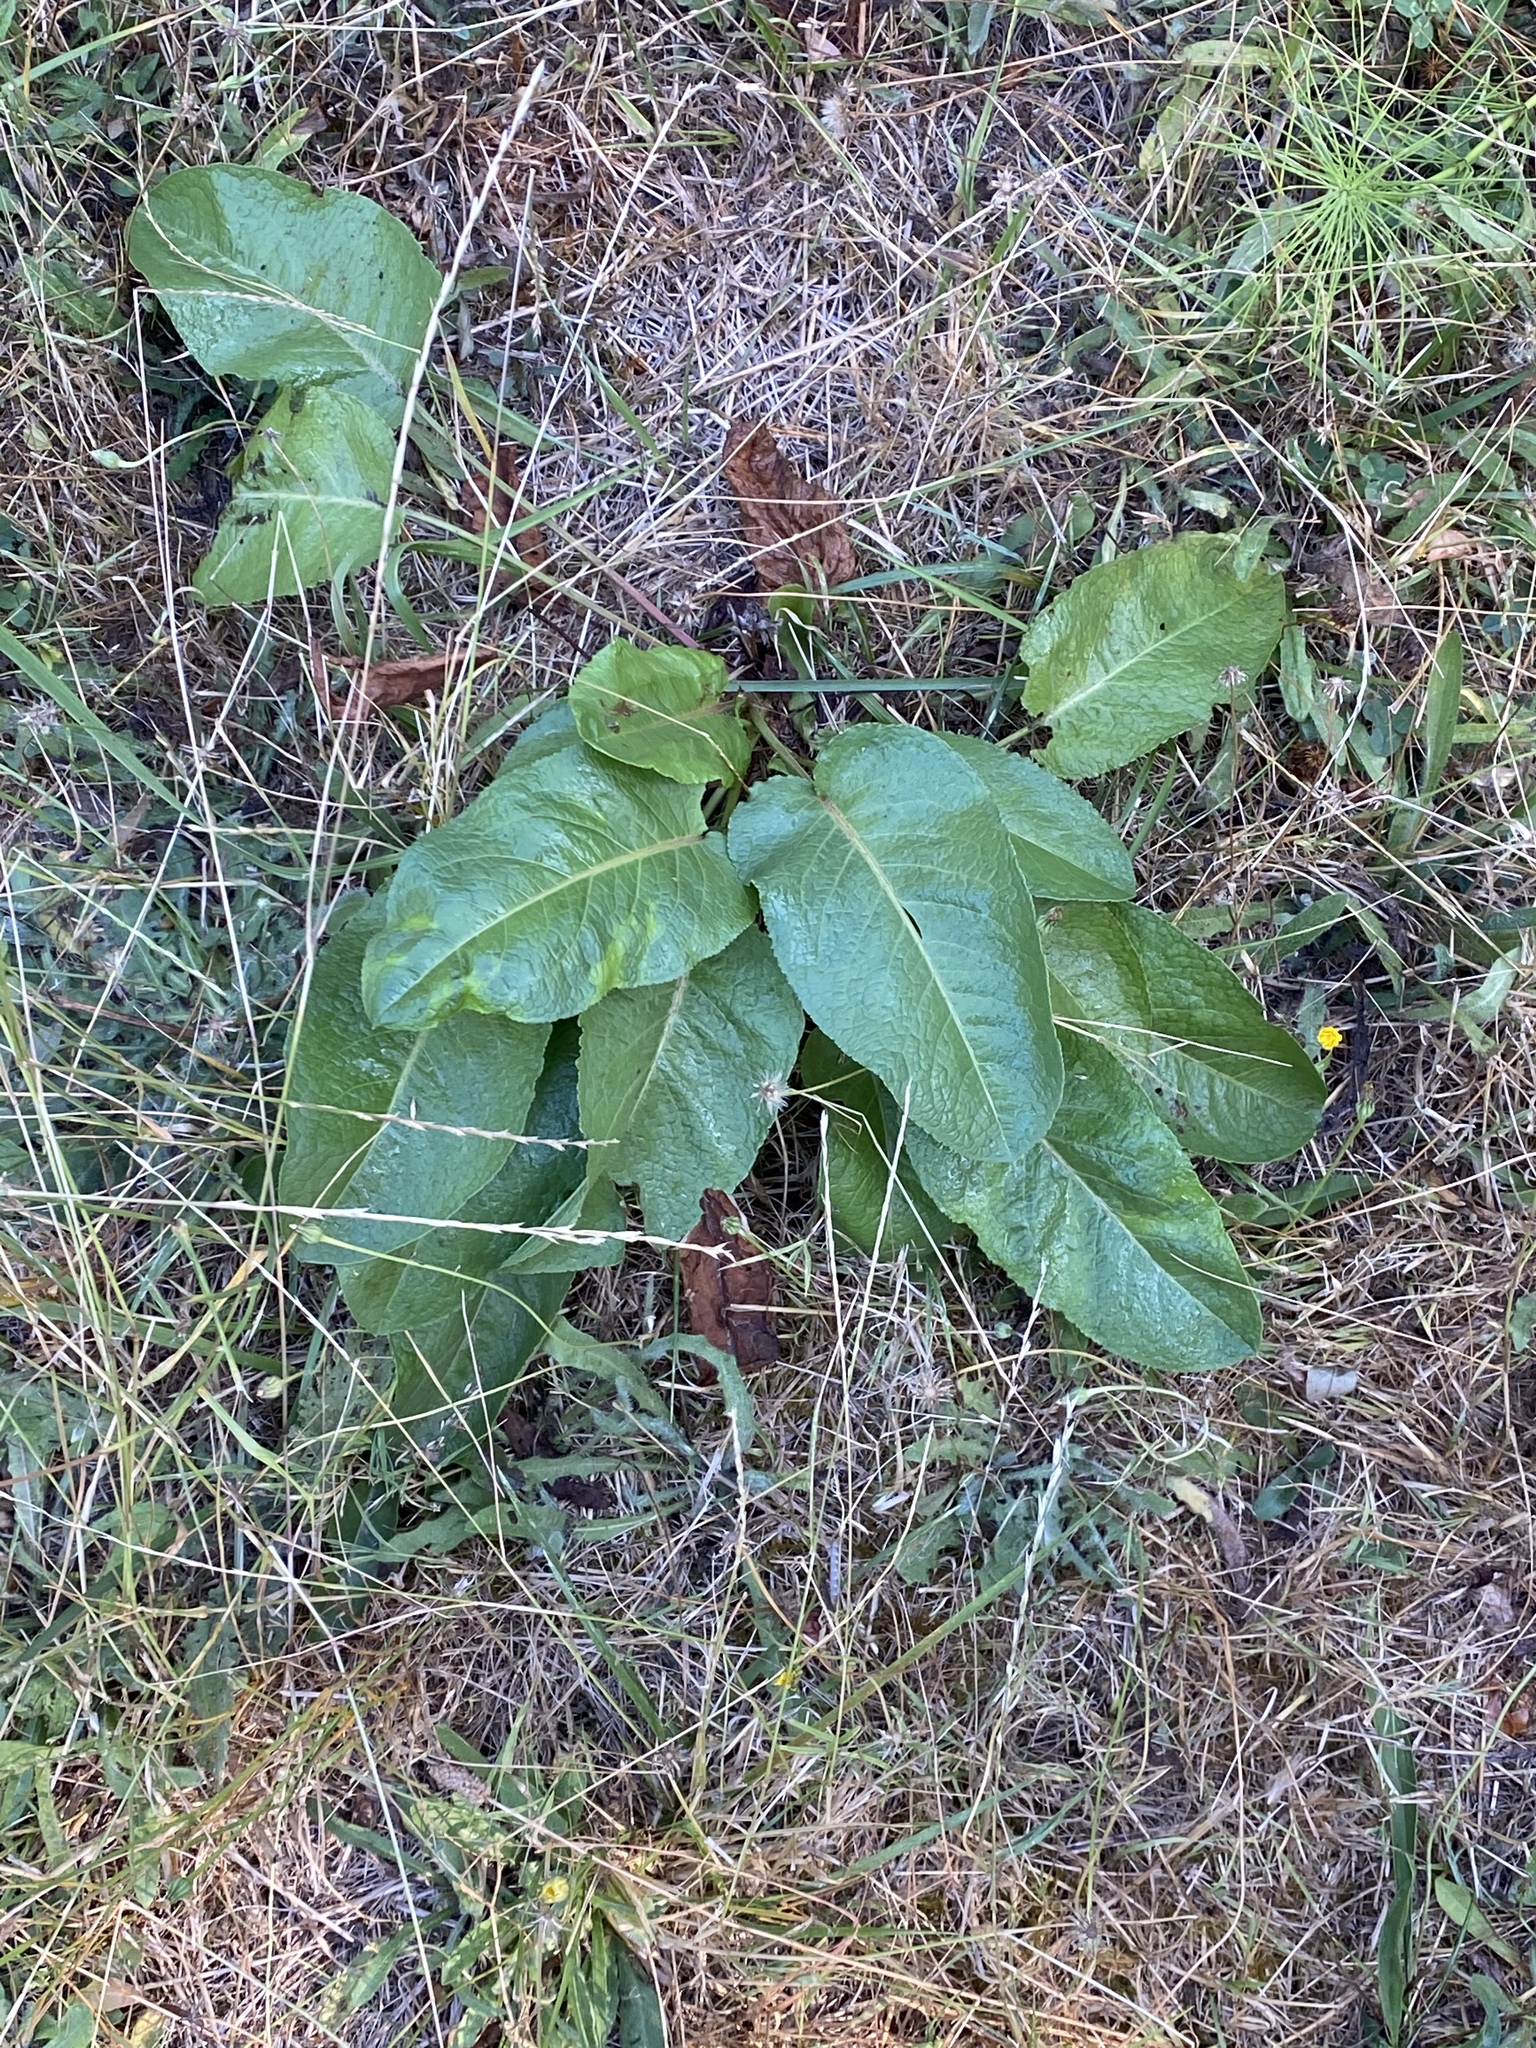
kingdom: Plantae
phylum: Tracheophyta
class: Magnoliopsida
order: Caryophyllales
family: Polygonaceae
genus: Rumex
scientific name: Rumex obtusifolius
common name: Bitter dock
